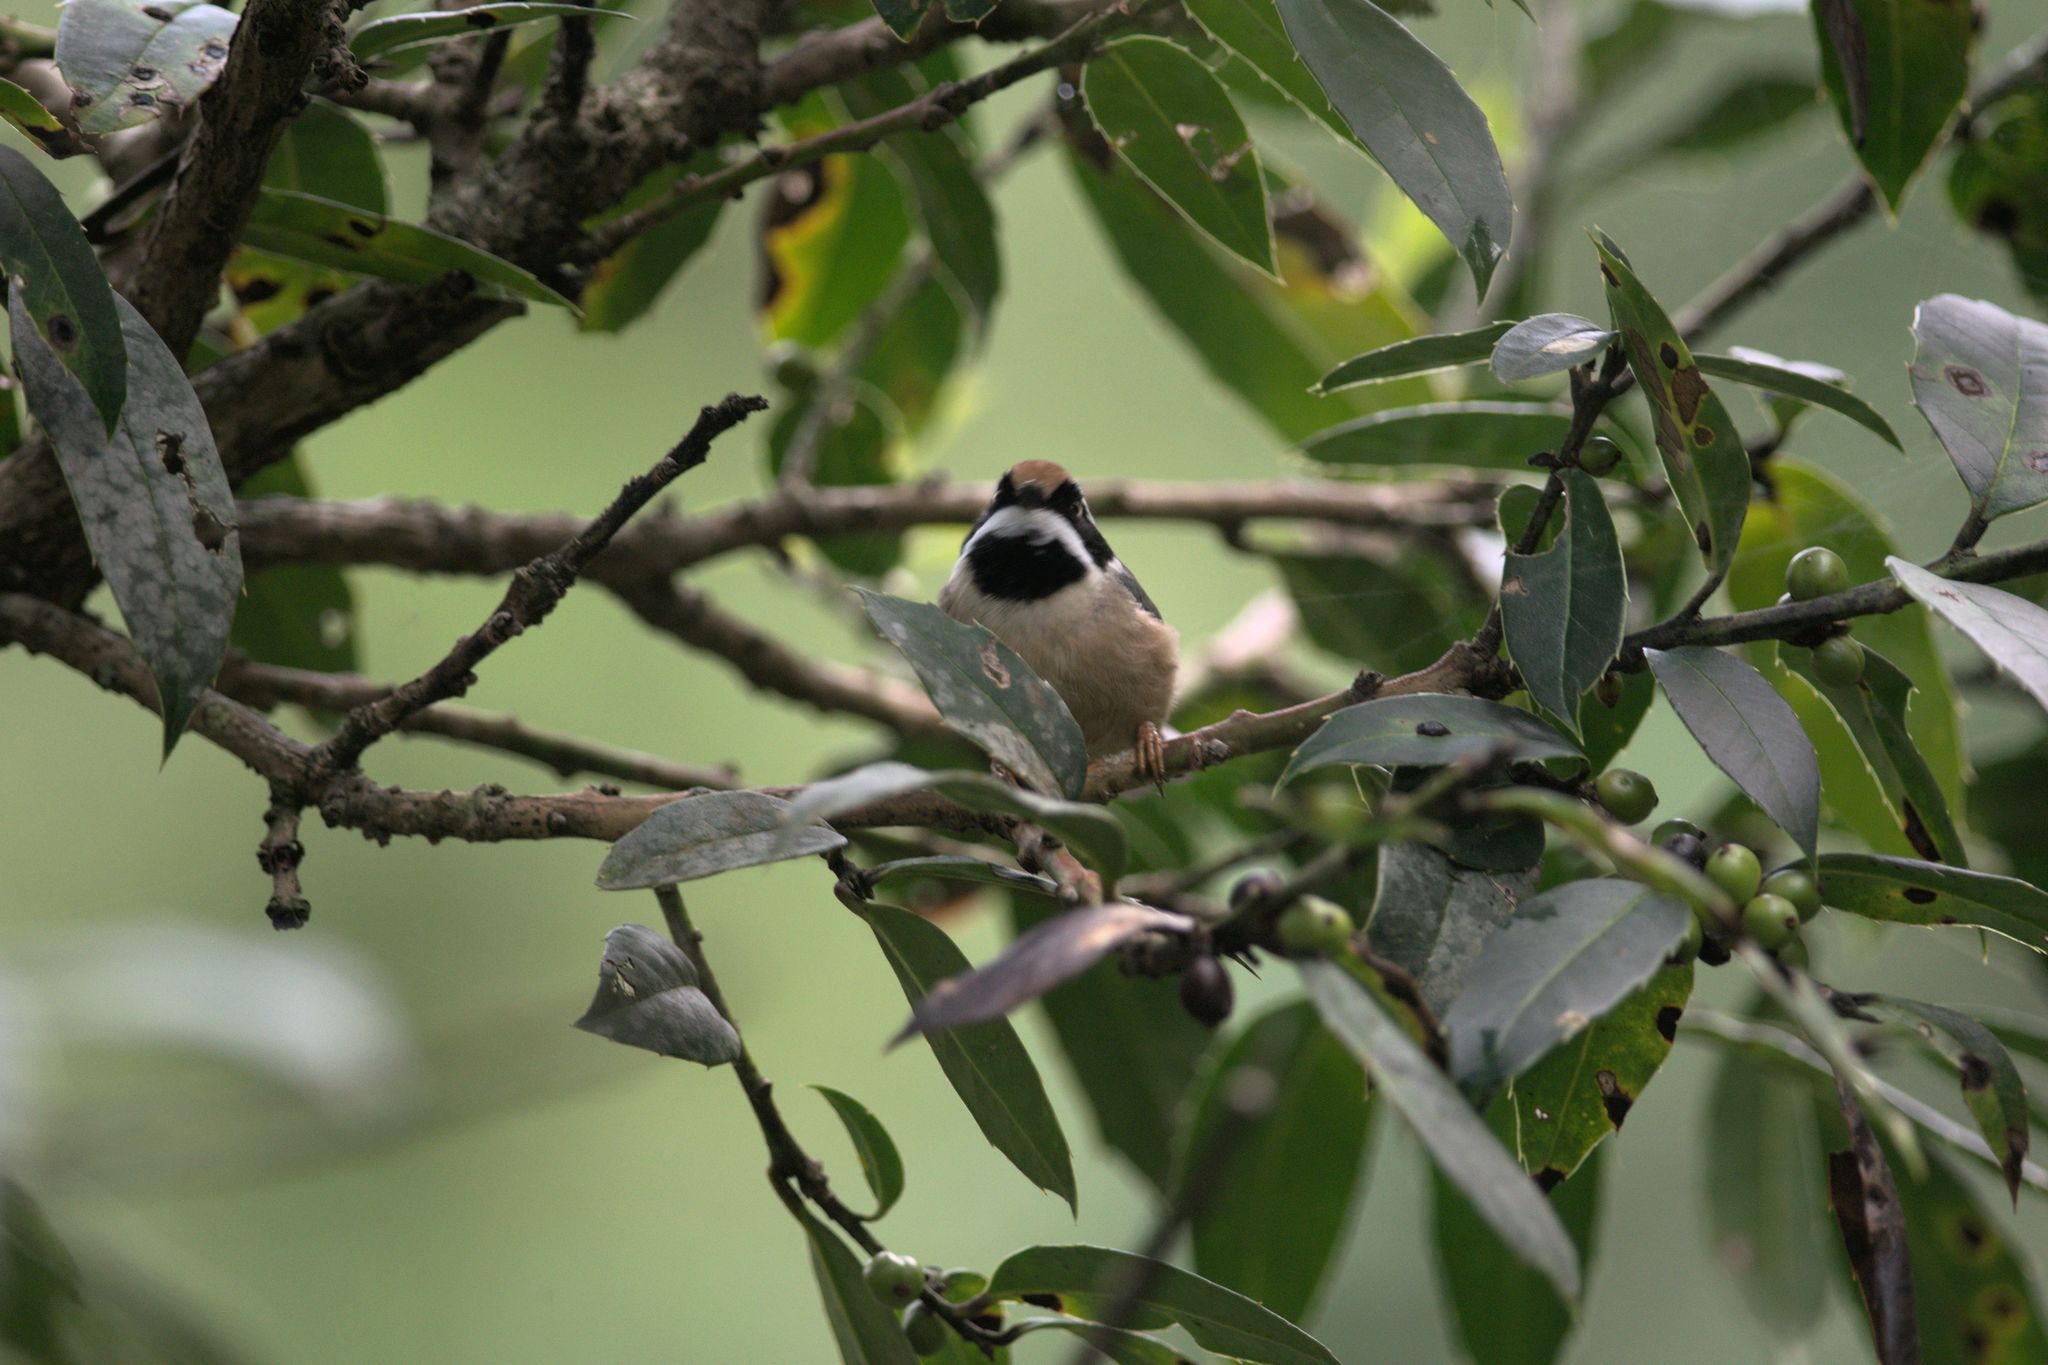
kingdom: Animalia
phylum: Chordata
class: Aves
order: Passeriformes
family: Aegithalidae
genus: Aegithalos
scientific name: Aegithalos concinnus
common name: Black-throated bushtit
